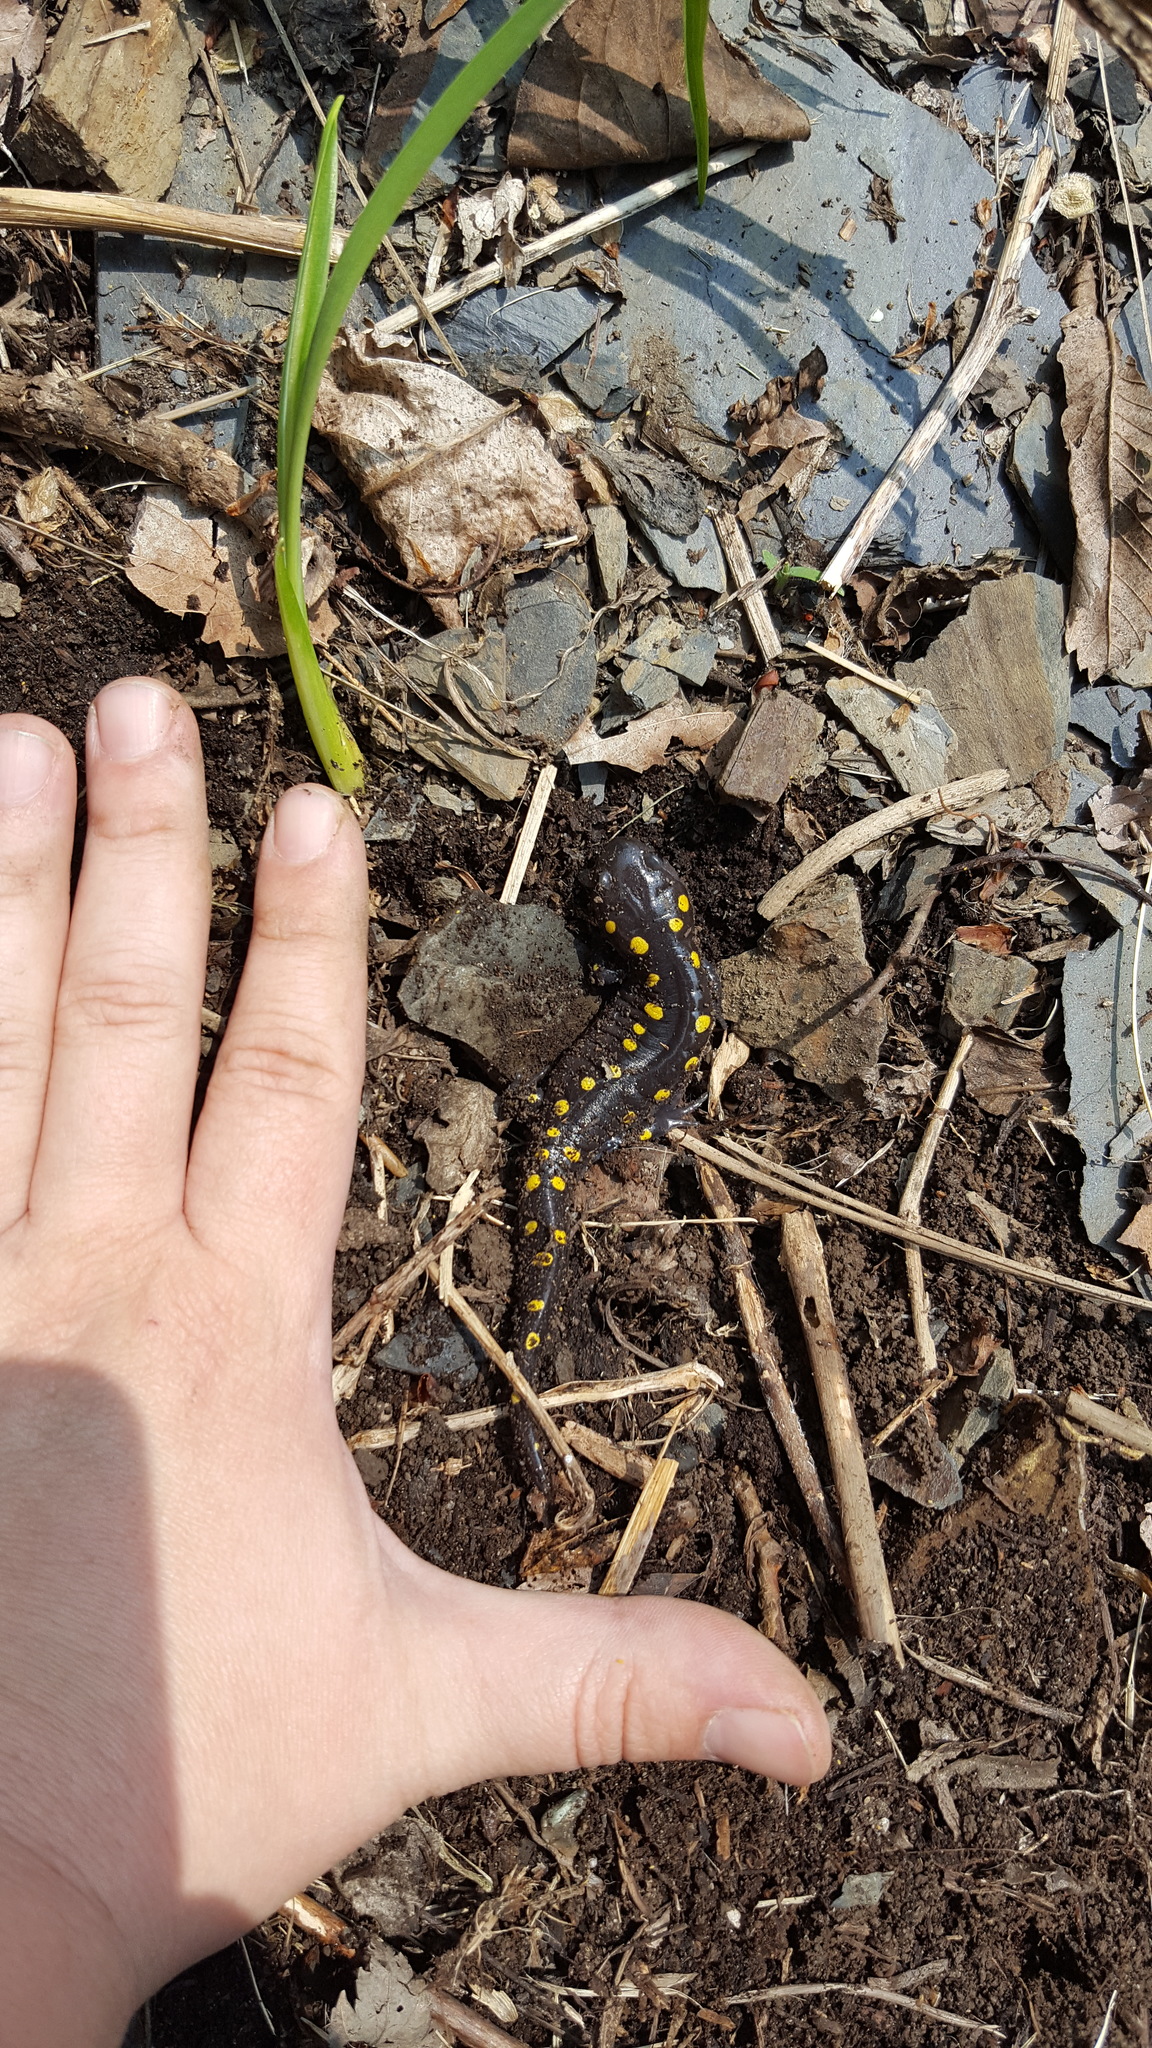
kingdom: Animalia
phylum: Chordata
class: Amphibia
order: Caudata
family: Ambystomatidae
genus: Ambystoma
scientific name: Ambystoma maculatum
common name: Spotted salamander
